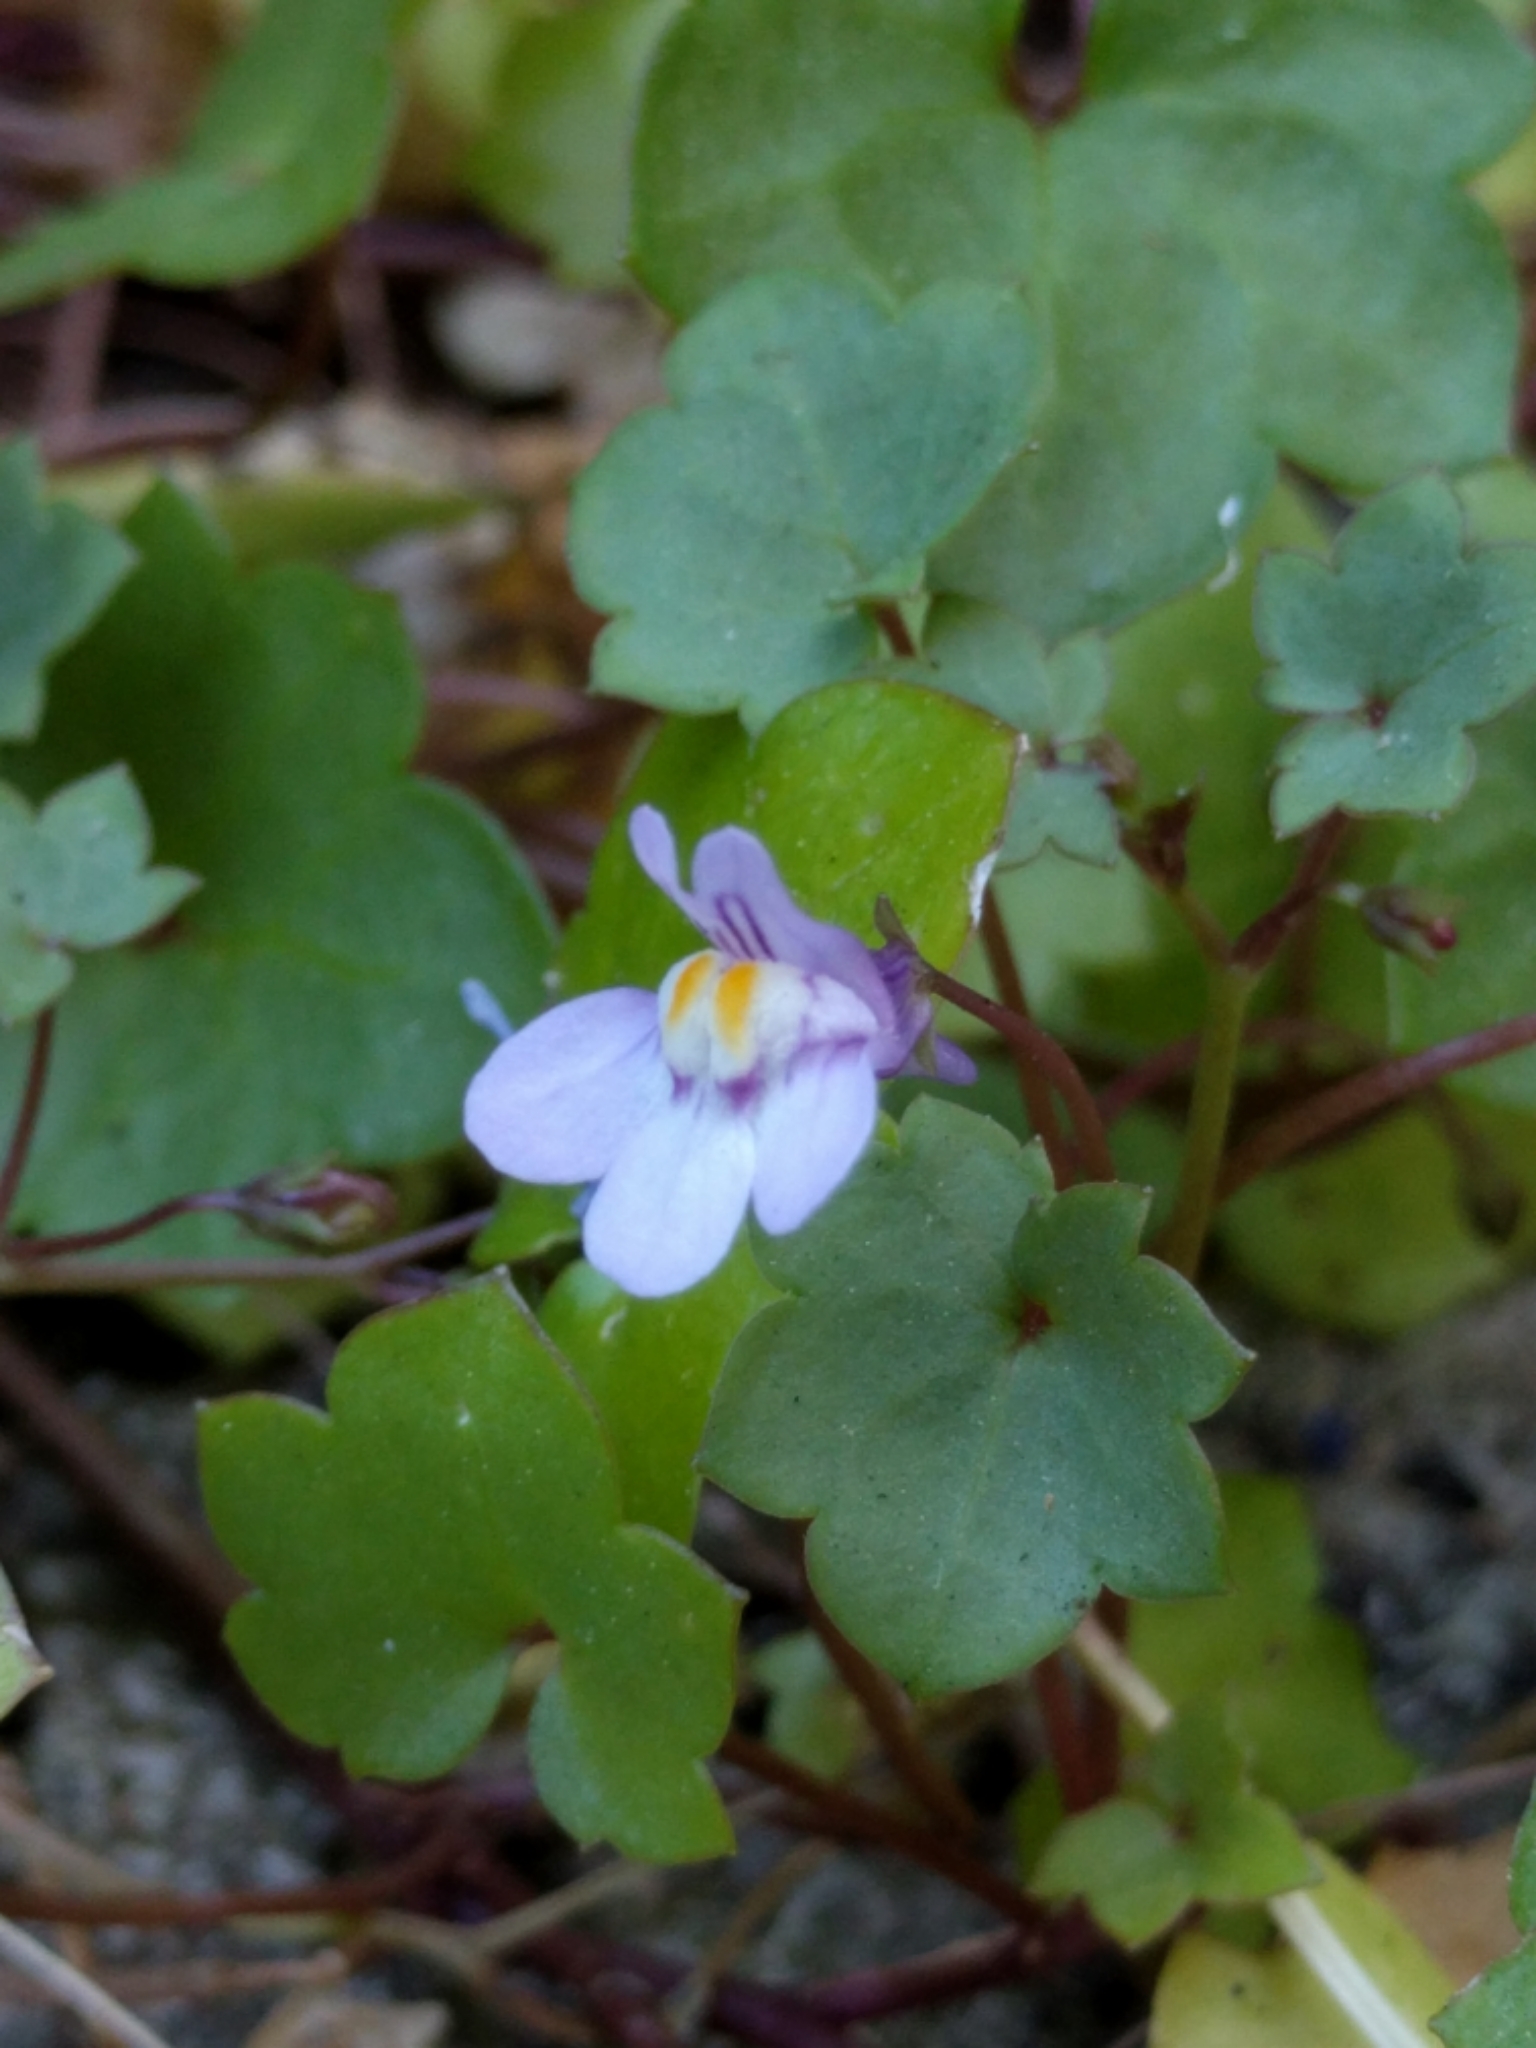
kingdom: Plantae
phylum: Tracheophyta
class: Magnoliopsida
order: Lamiales
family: Plantaginaceae
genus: Cymbalaria
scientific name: Cymbalaria muralis
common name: Ivy-leaved toadflax
